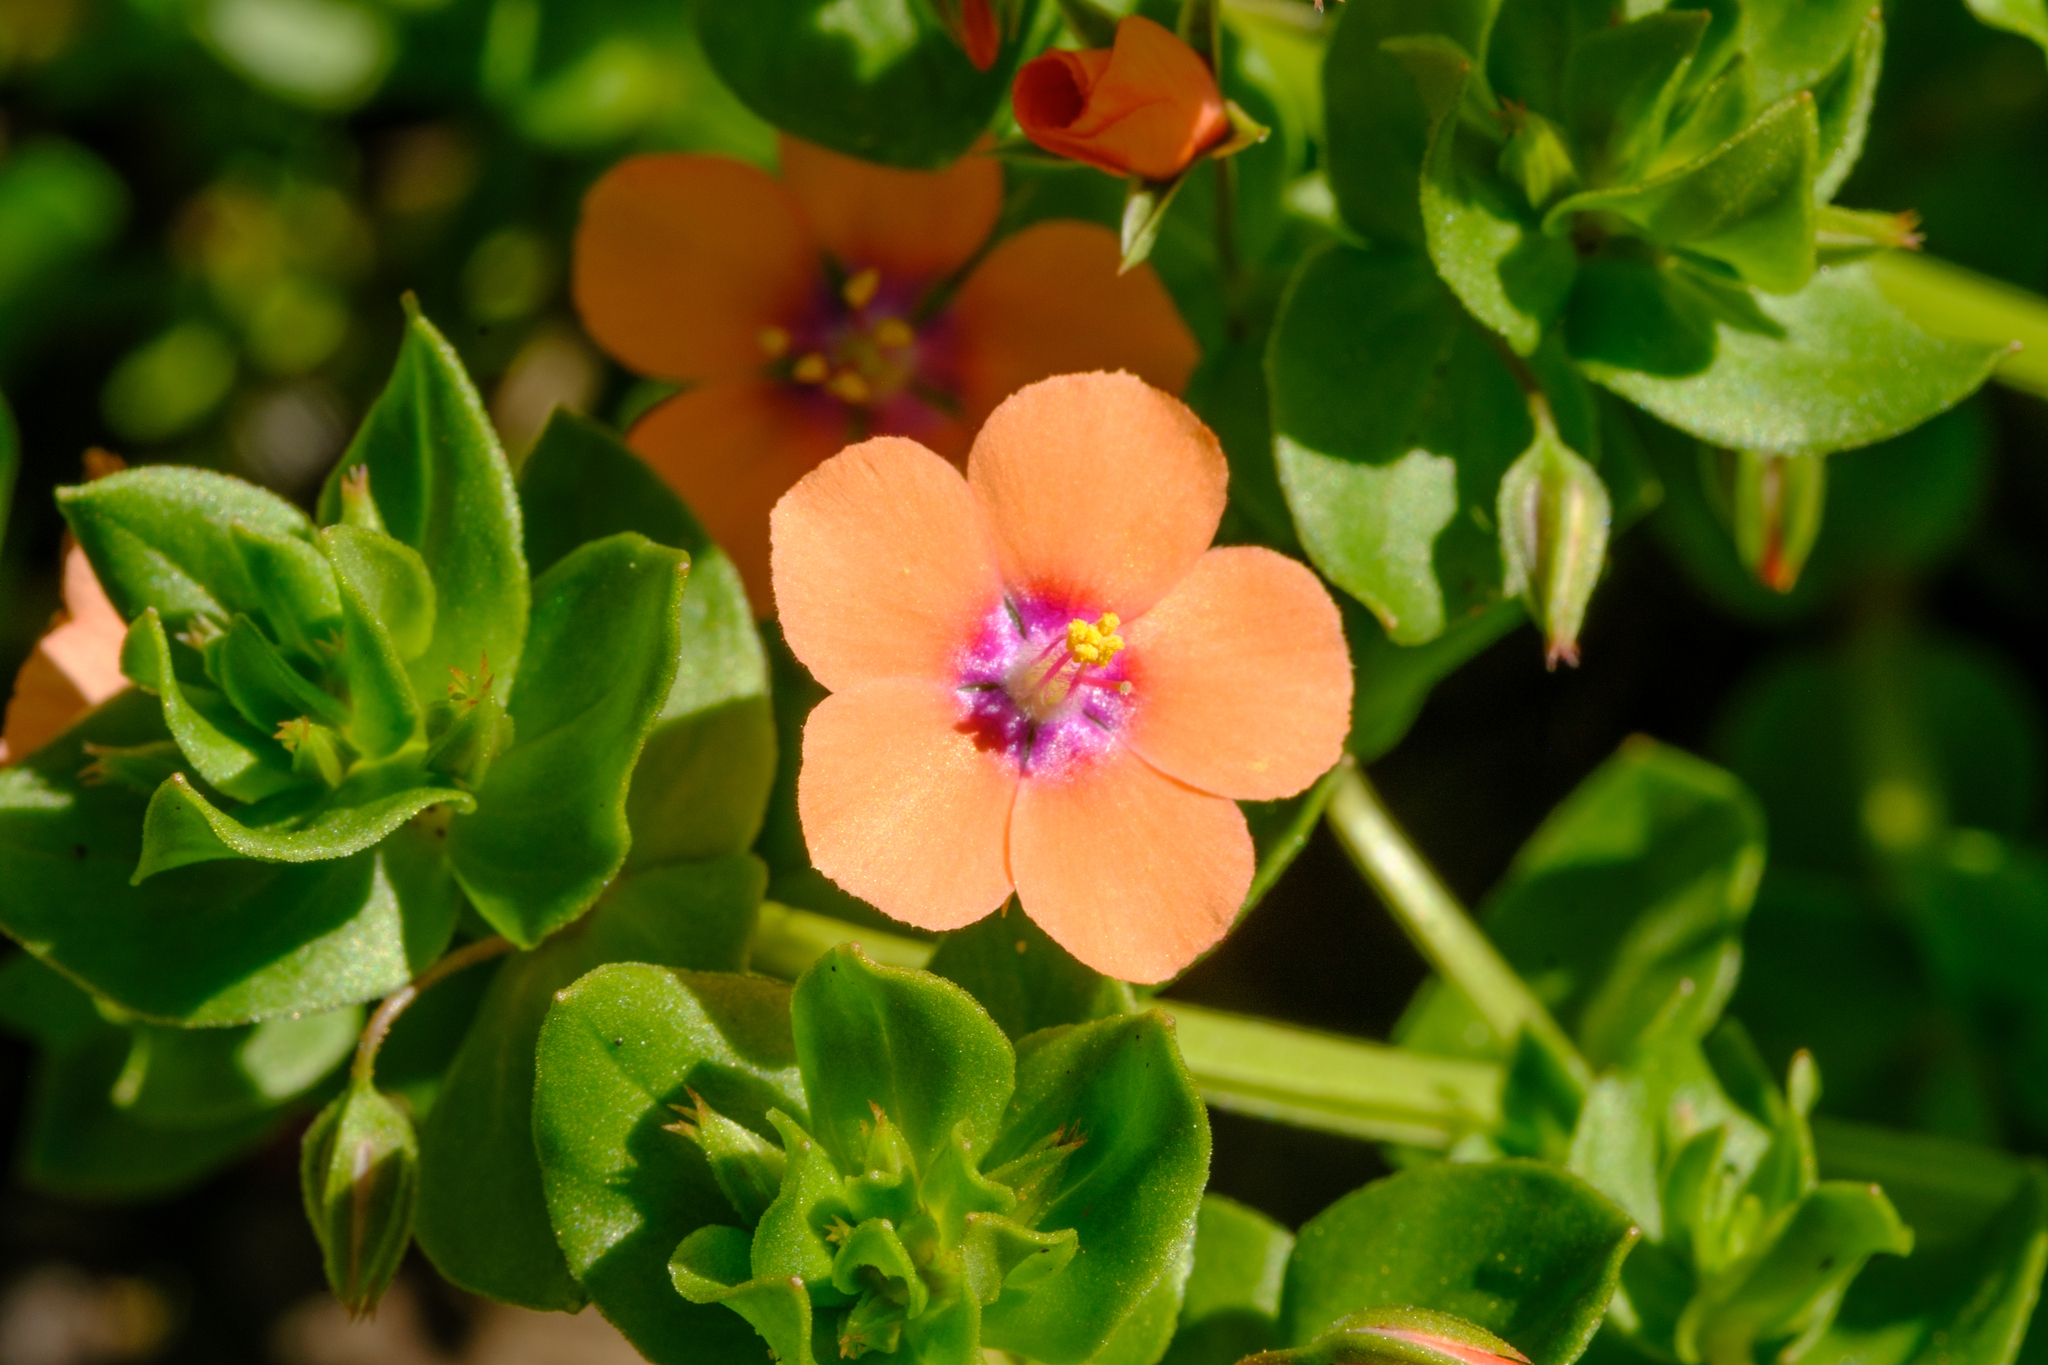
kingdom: Plantae
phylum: Tracheophyta
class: Magnoliopsida
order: Ericales
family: Primulaceae
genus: Lysimachia
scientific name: Lysimachia arvensis
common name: Scarlet pimpernel
